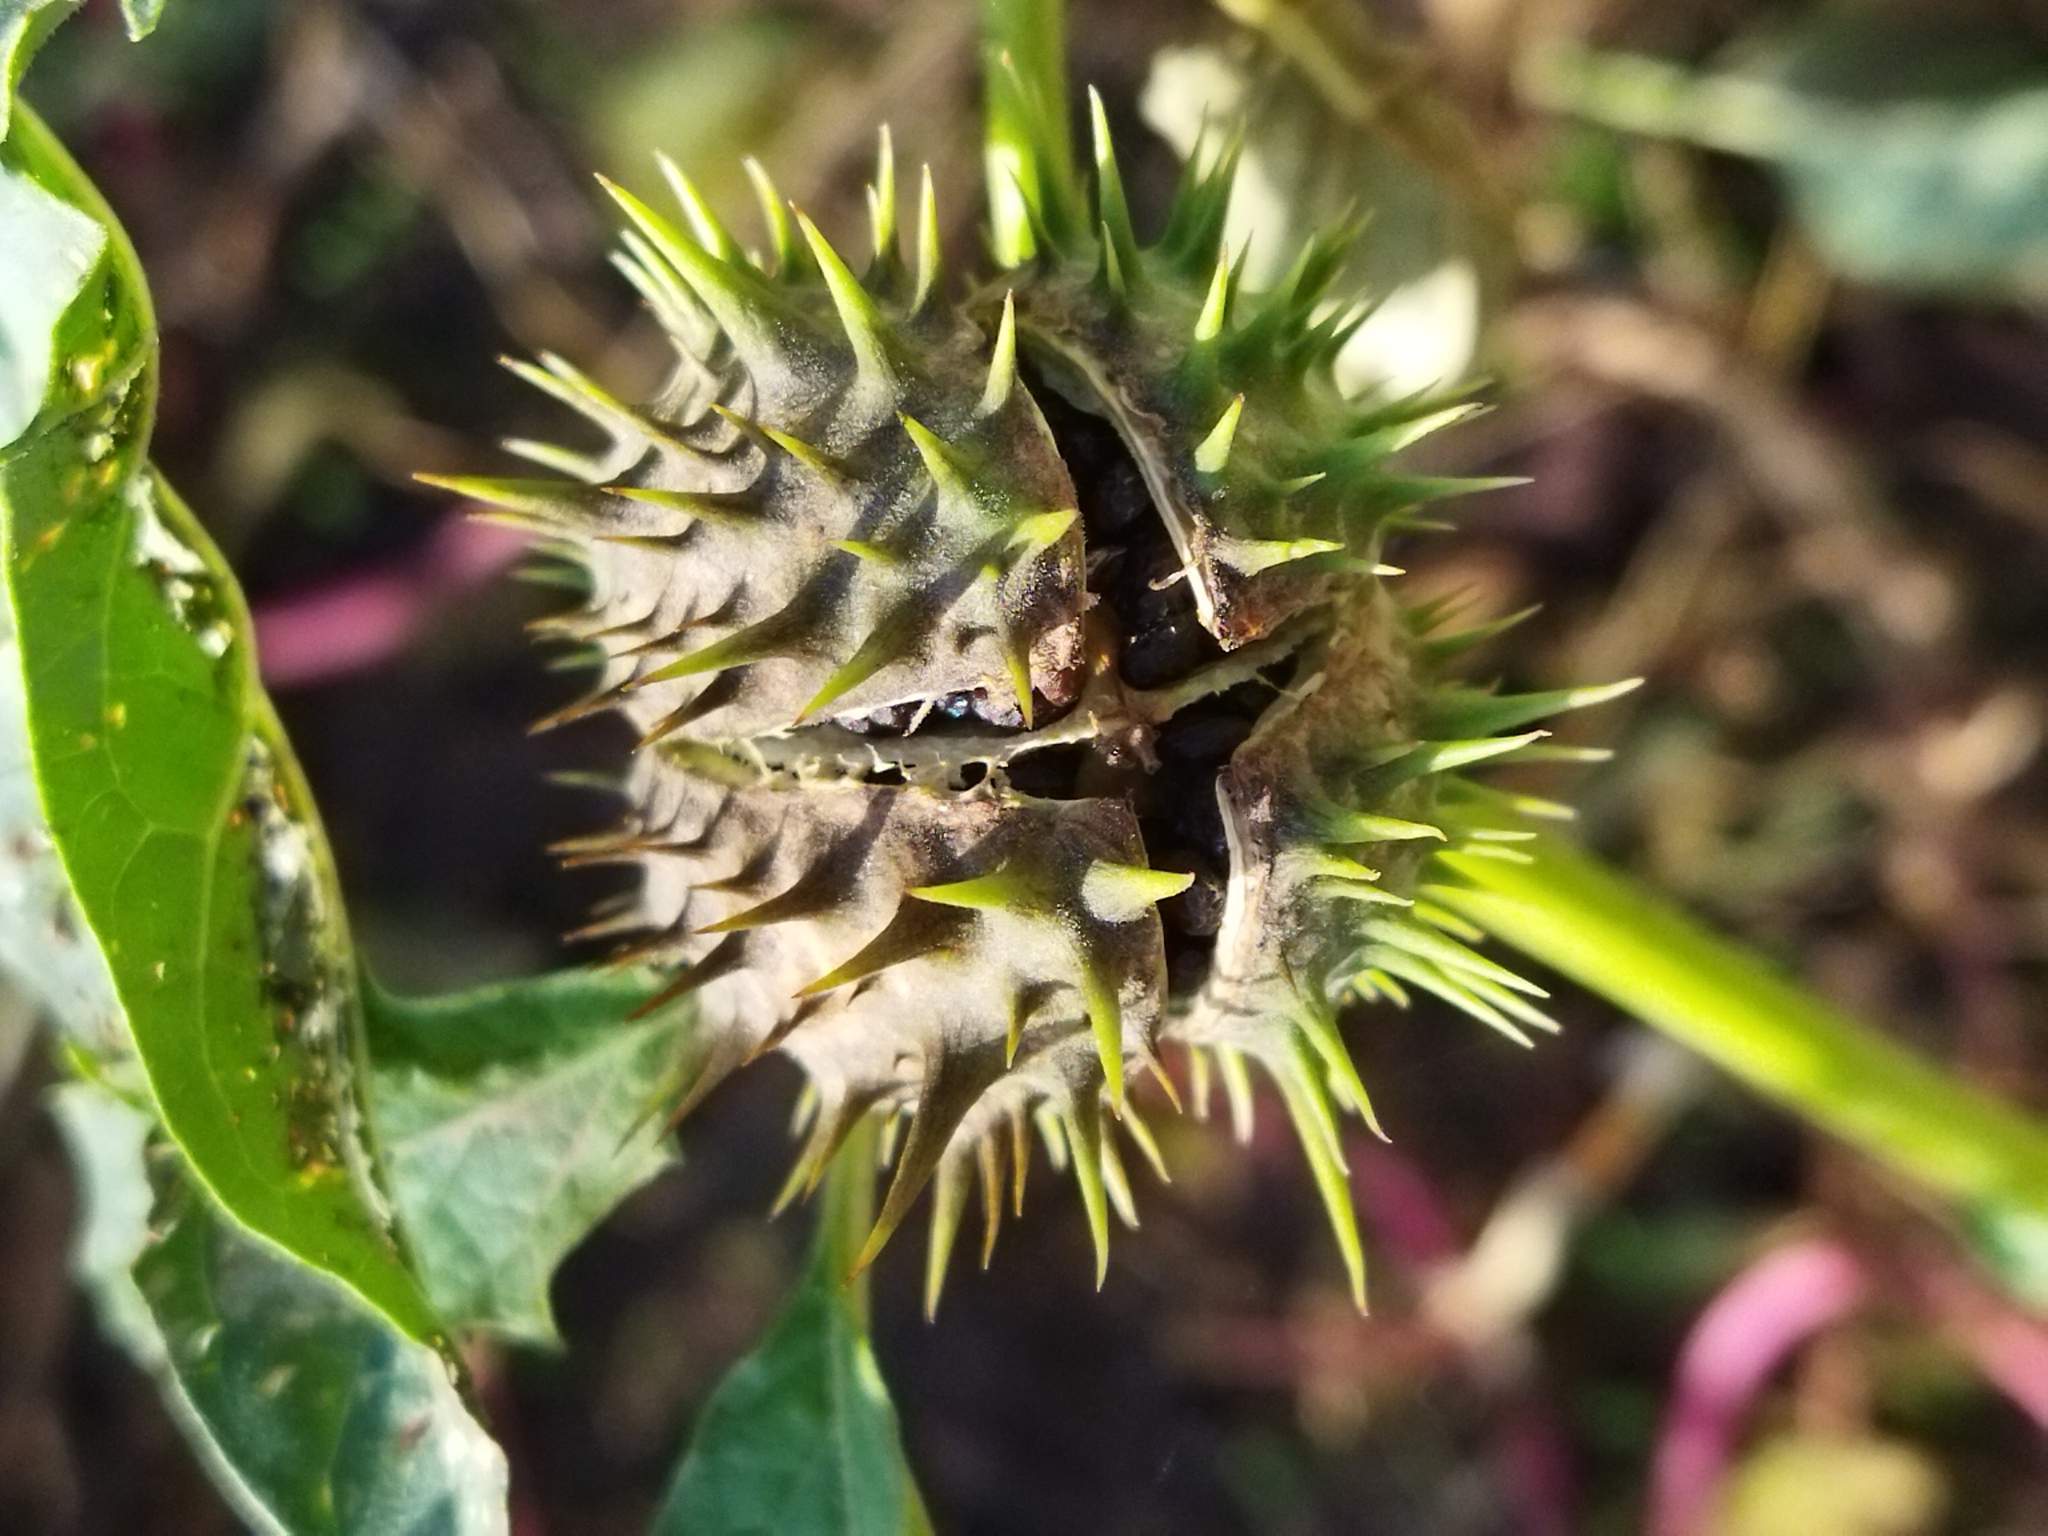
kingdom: Plantae
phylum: Tracheophyta
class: Magnoliopsida
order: Solanales
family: Solanaceae
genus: Datura
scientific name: Datura stramonium
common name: Thorn-apple
